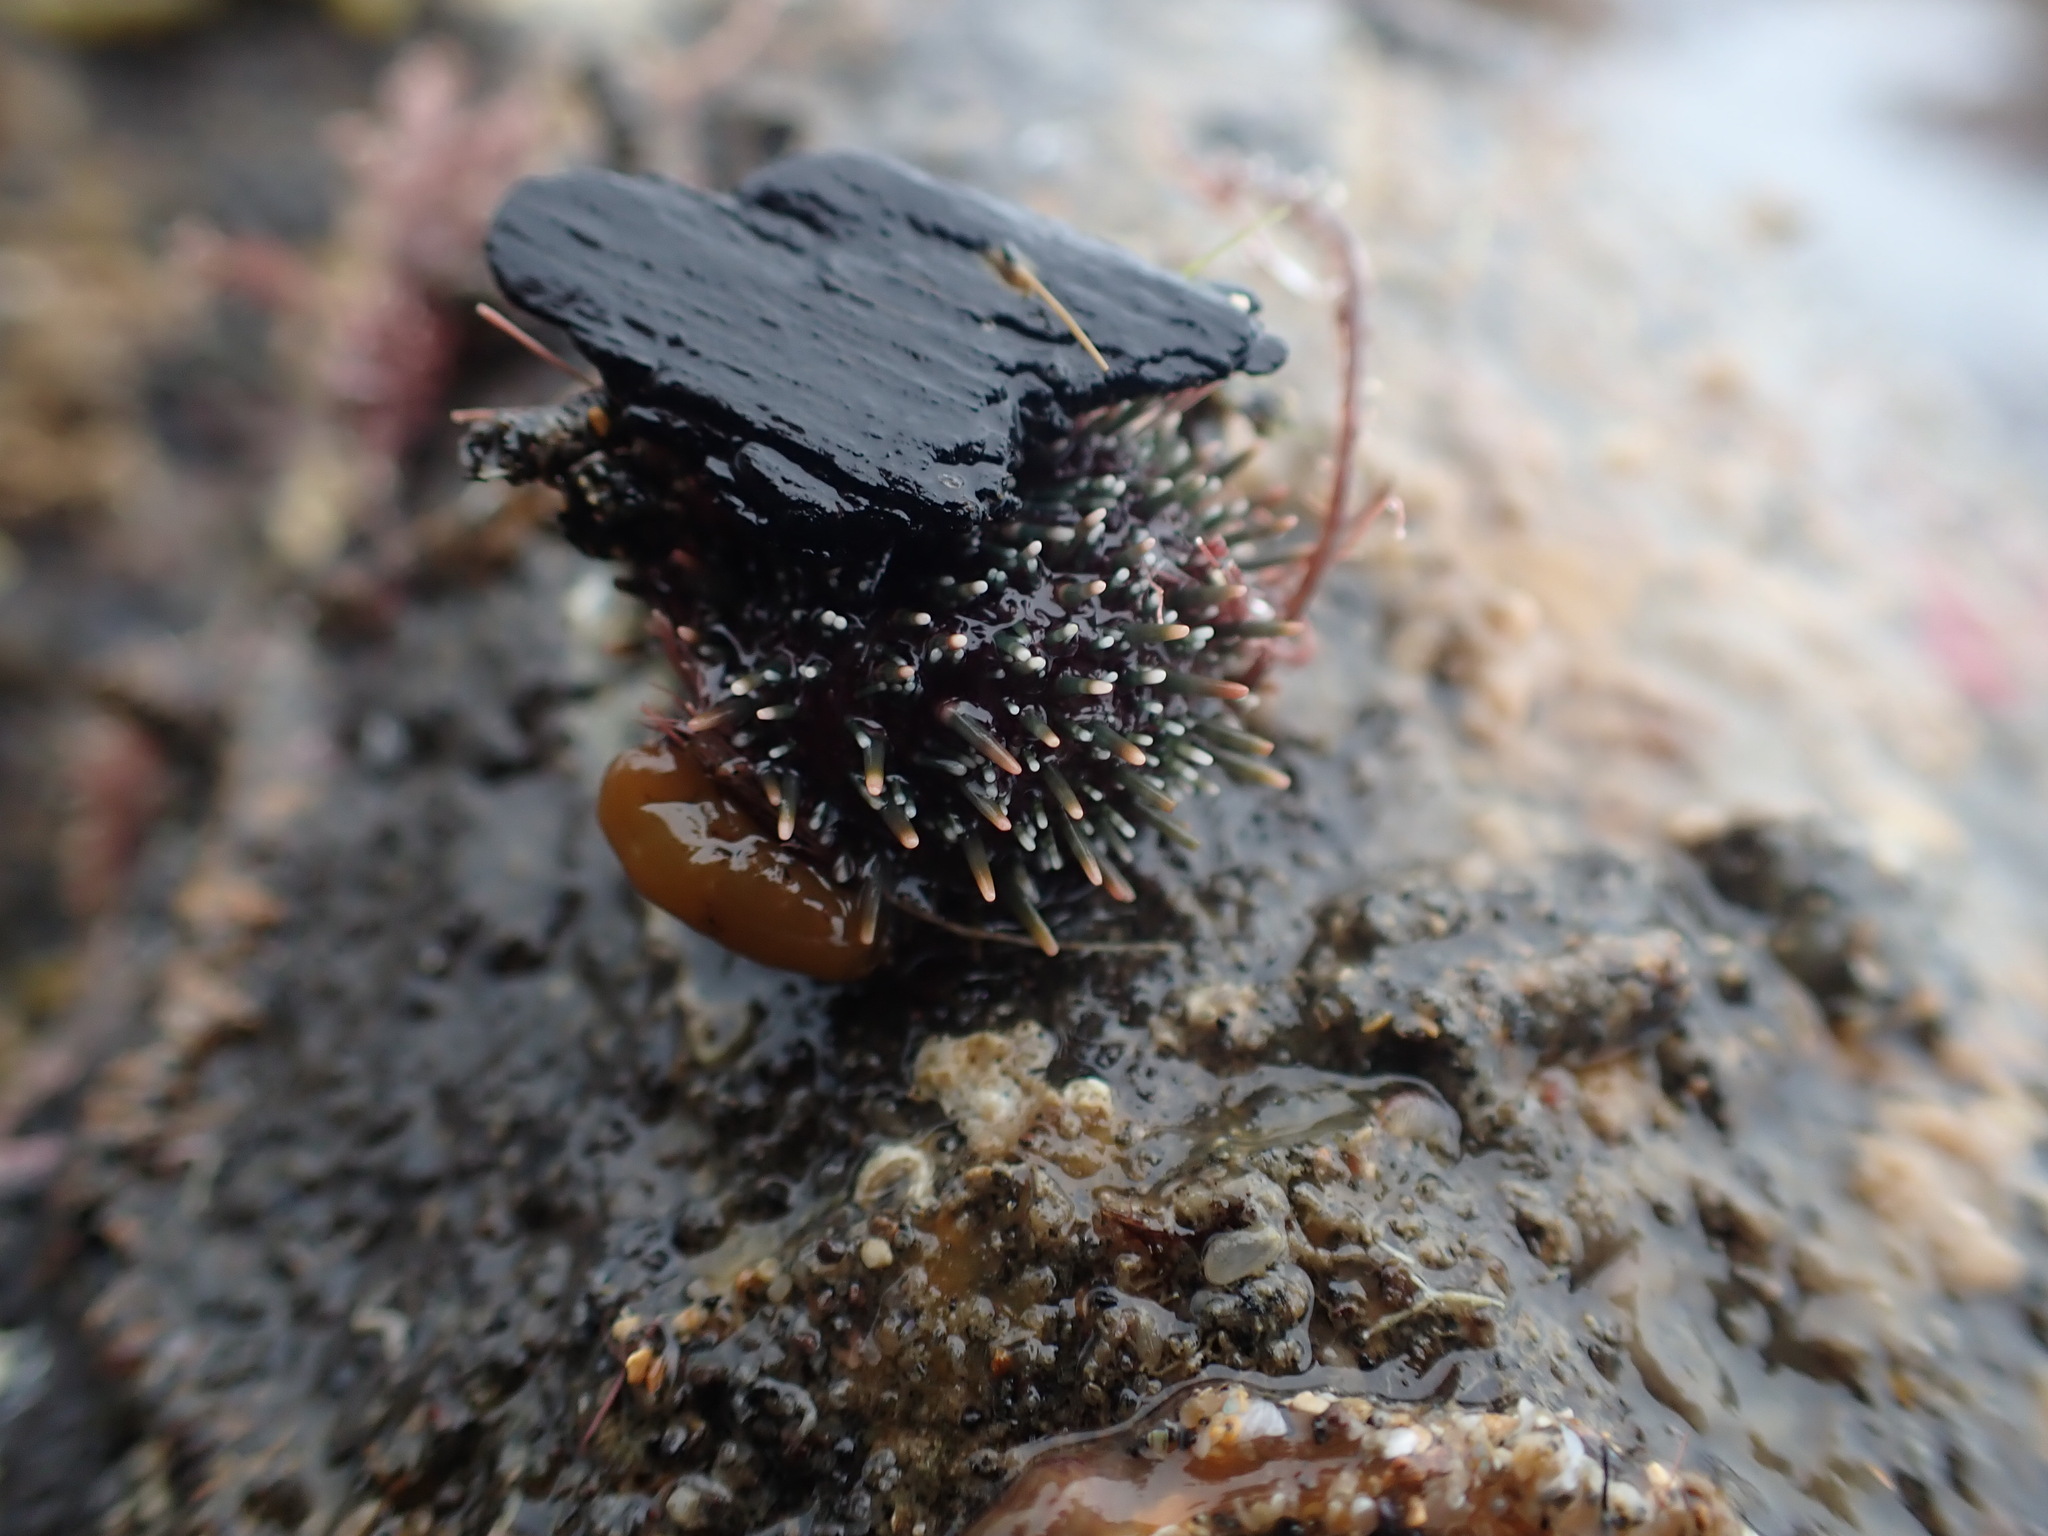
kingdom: Animalia
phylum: Echinodermata
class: Echinoidea
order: Camarodonta
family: Echinometridae
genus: Evechinus
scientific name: Evechinus chloroticus
